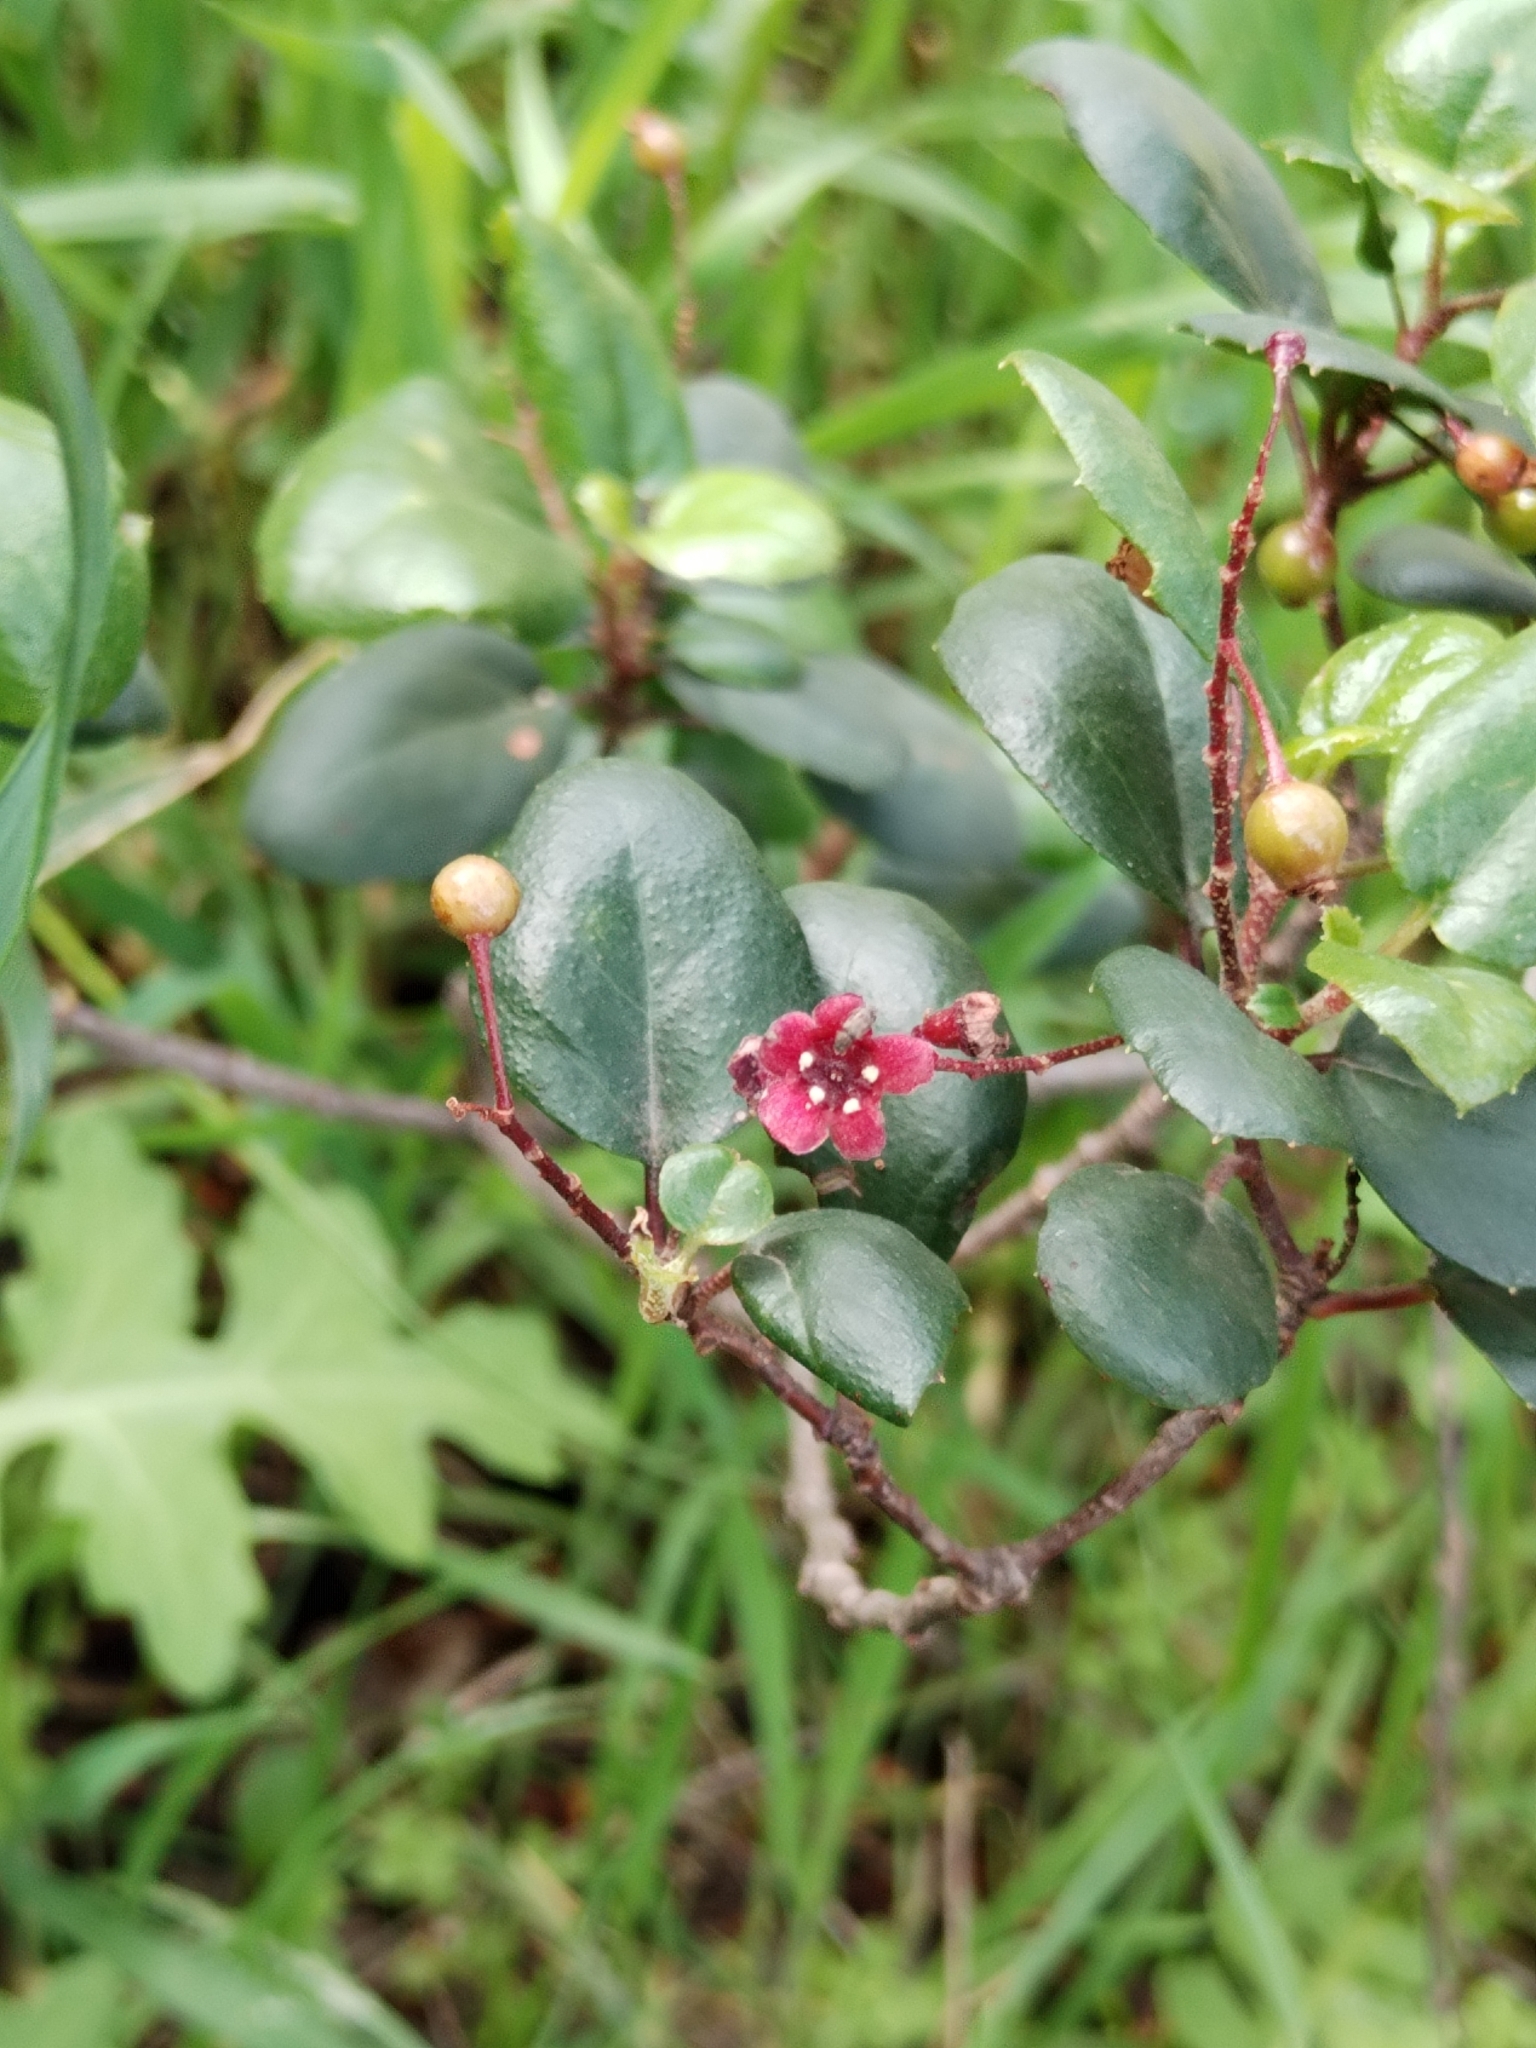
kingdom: Plantae
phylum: Tracheophyta
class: Magnoliopsida
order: Saxifragales
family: Grossulariaceae
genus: Ribes
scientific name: Ribes viburnifolium
